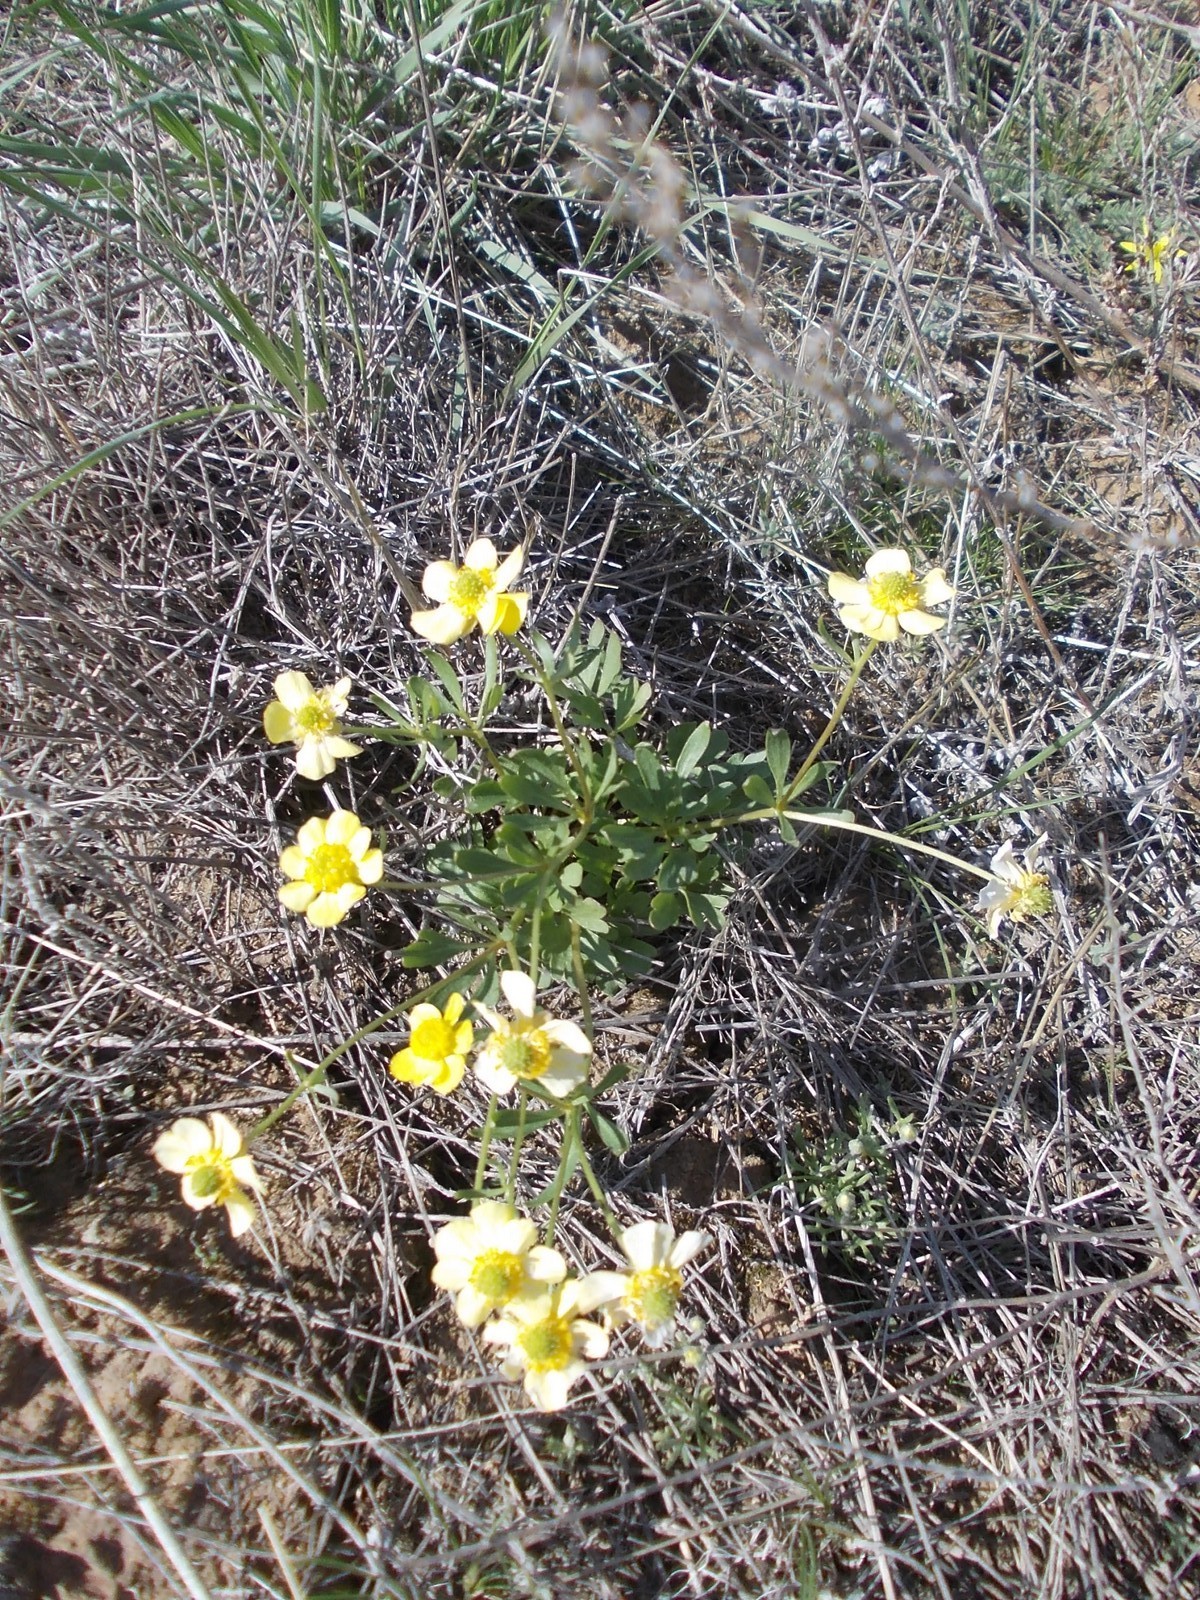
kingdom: Plantae
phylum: Tracheophyta
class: Magnoliopsida
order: Ranunculales
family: Ranunculaceae
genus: Ranunculus
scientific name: Ranunculus polyrhizos
